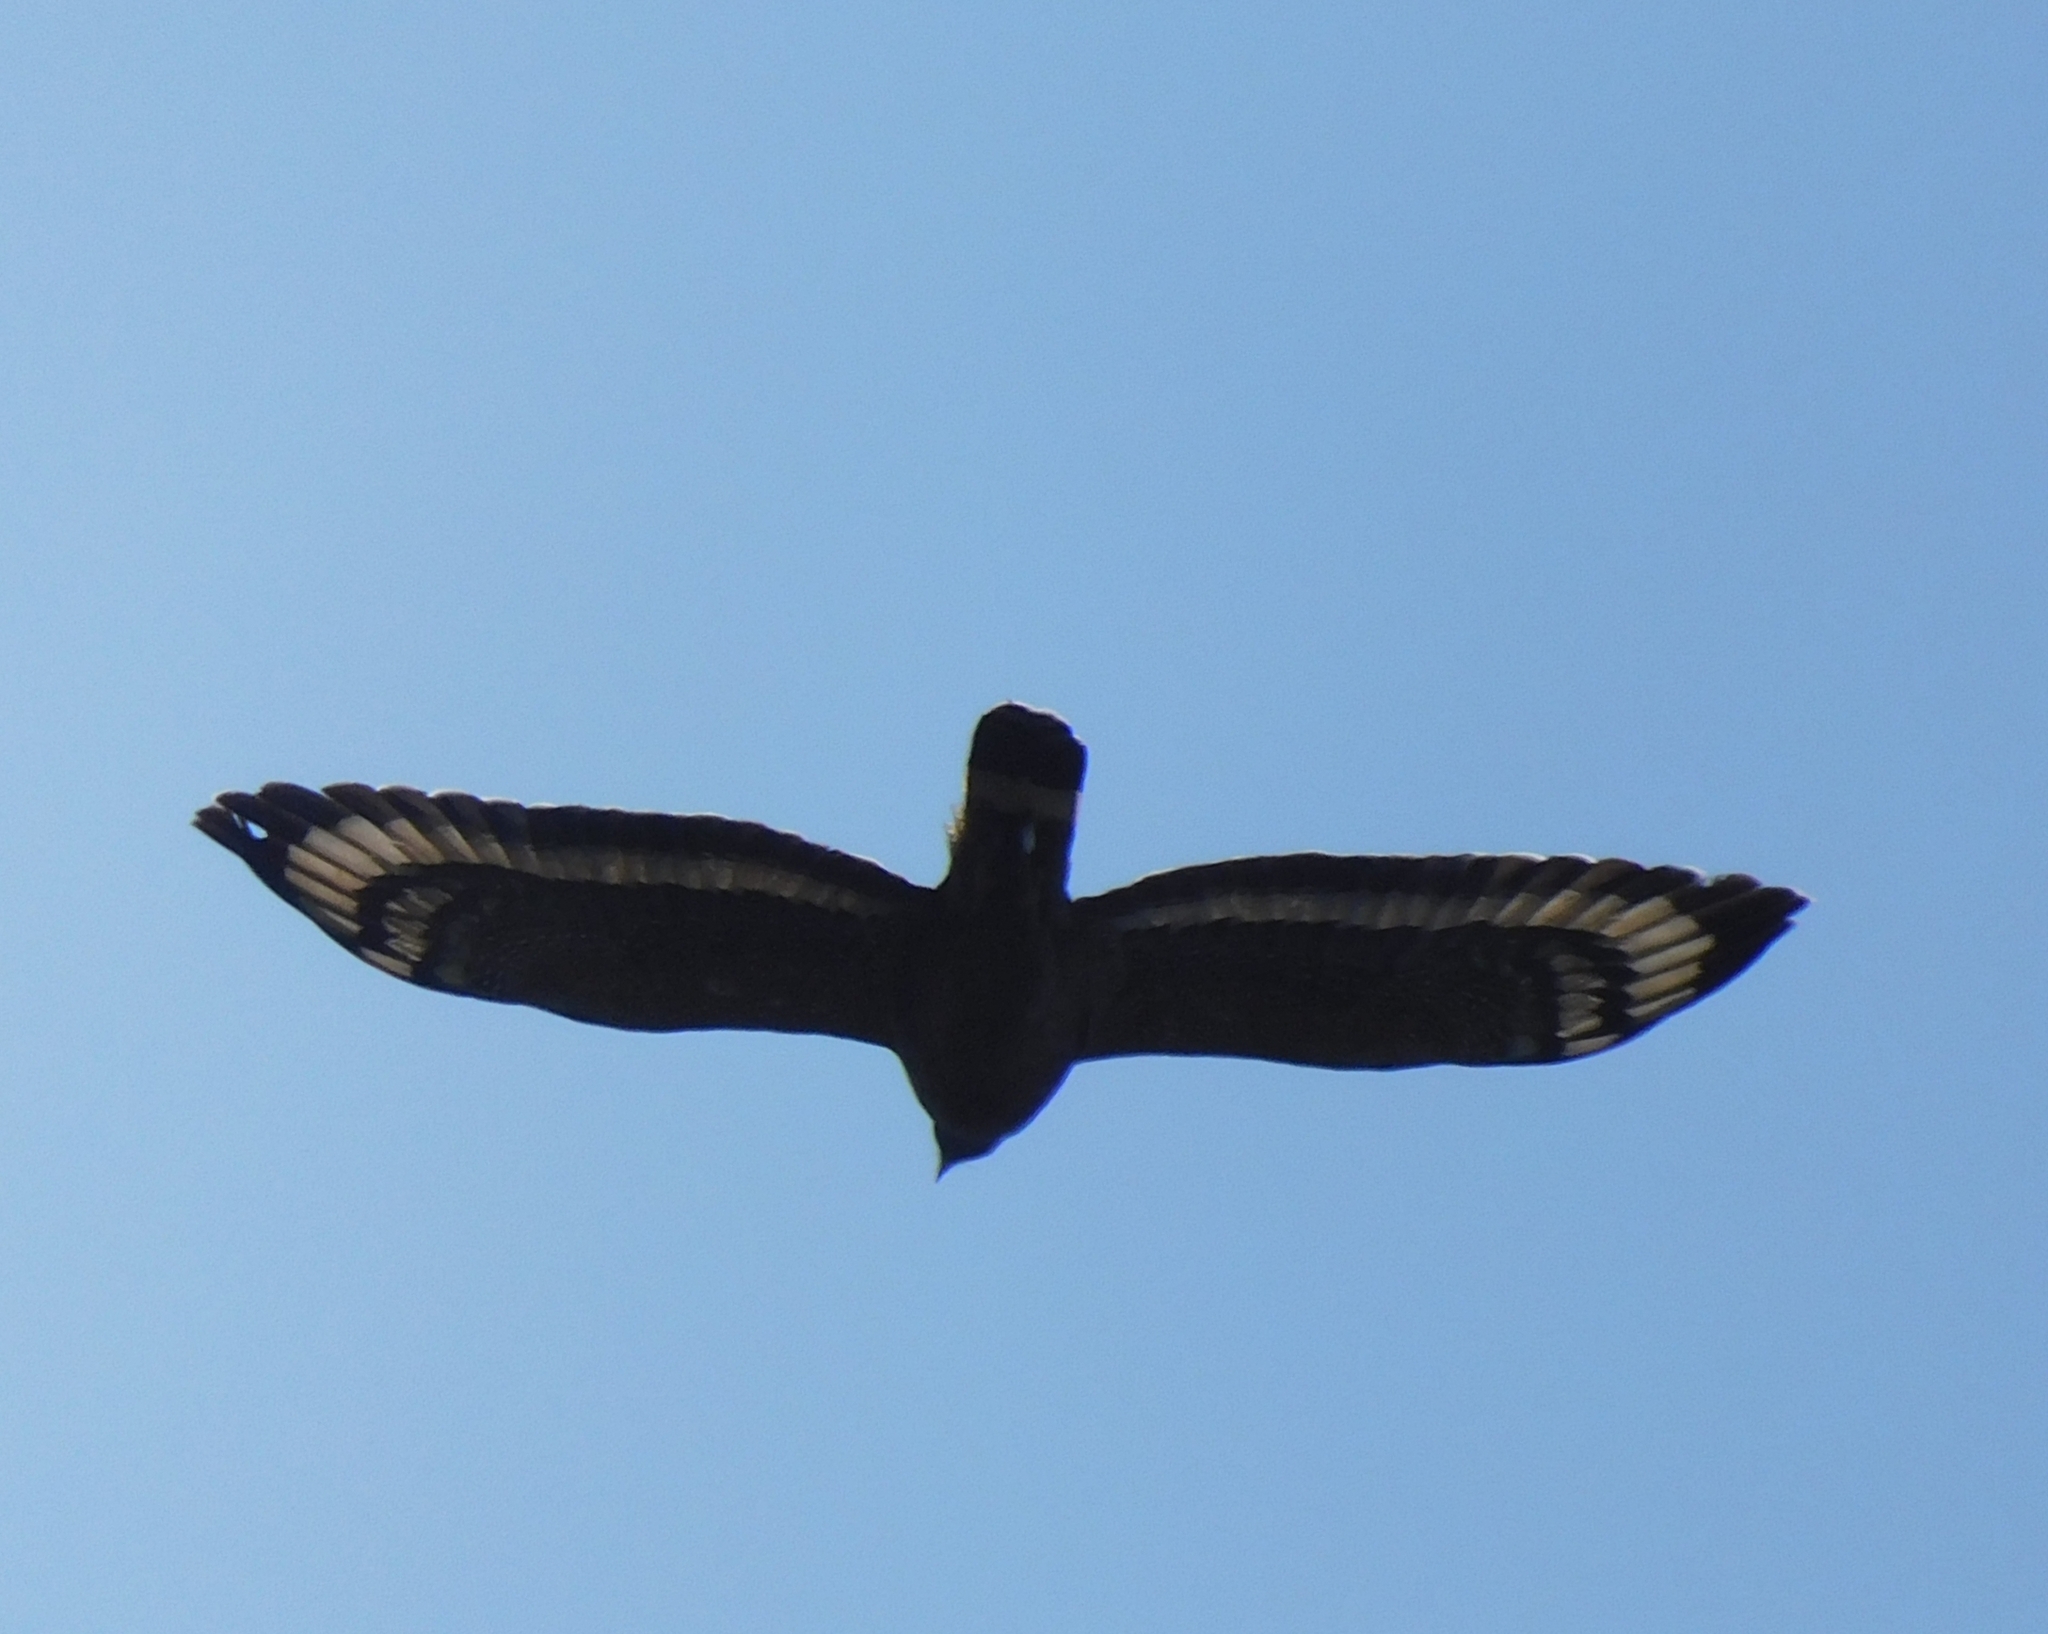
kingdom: Animalia
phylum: Chordata
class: Aves
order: Accipitriformes
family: Accipitridae
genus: Spilornis
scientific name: Spilornis cheela
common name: Crested serpent eagle
